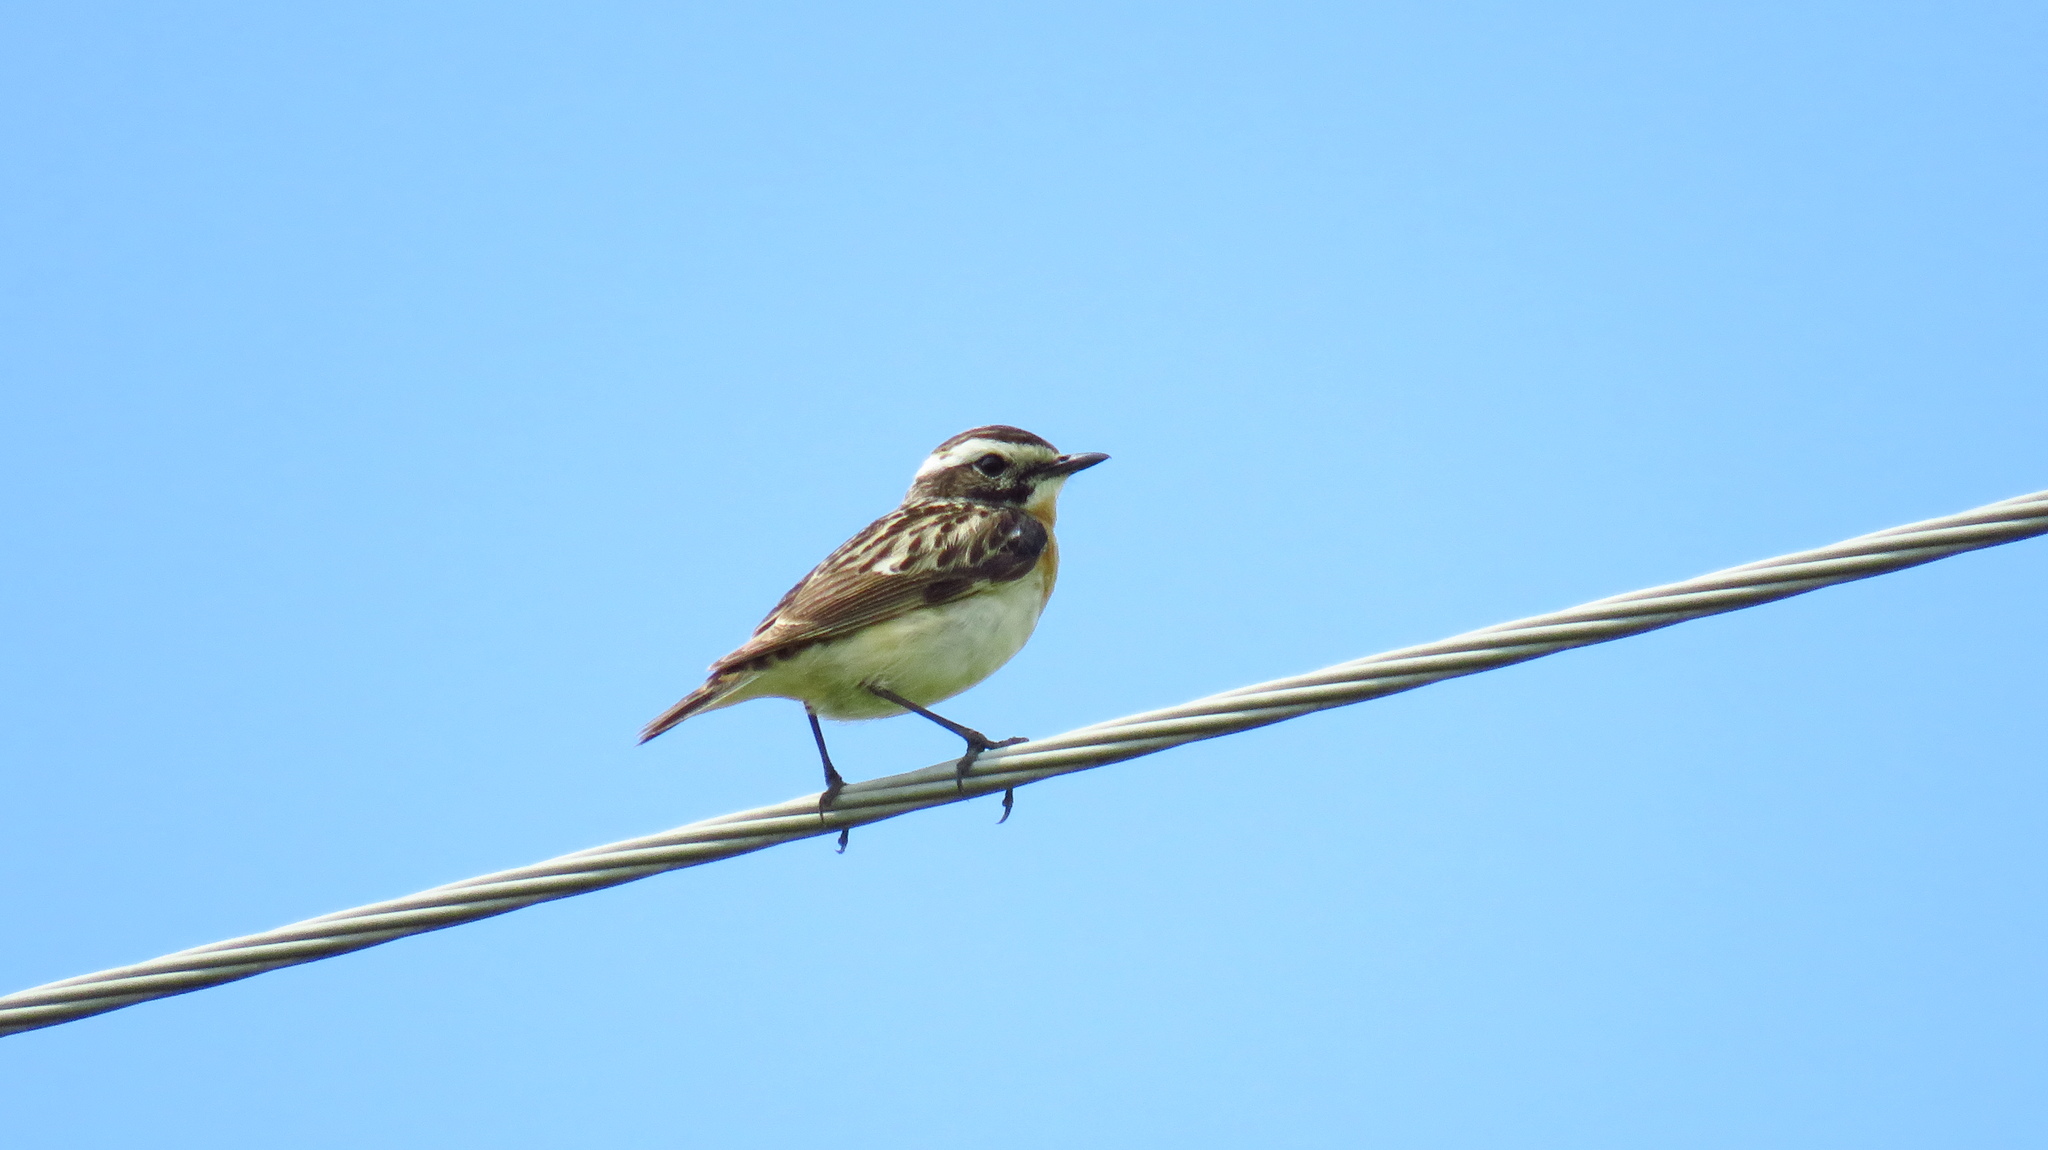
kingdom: Animalia
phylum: Chordata
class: Aves
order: Passeriformes
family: Muscicapidae
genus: Saxicola
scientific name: Saxicola rubetra
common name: Whinchat
